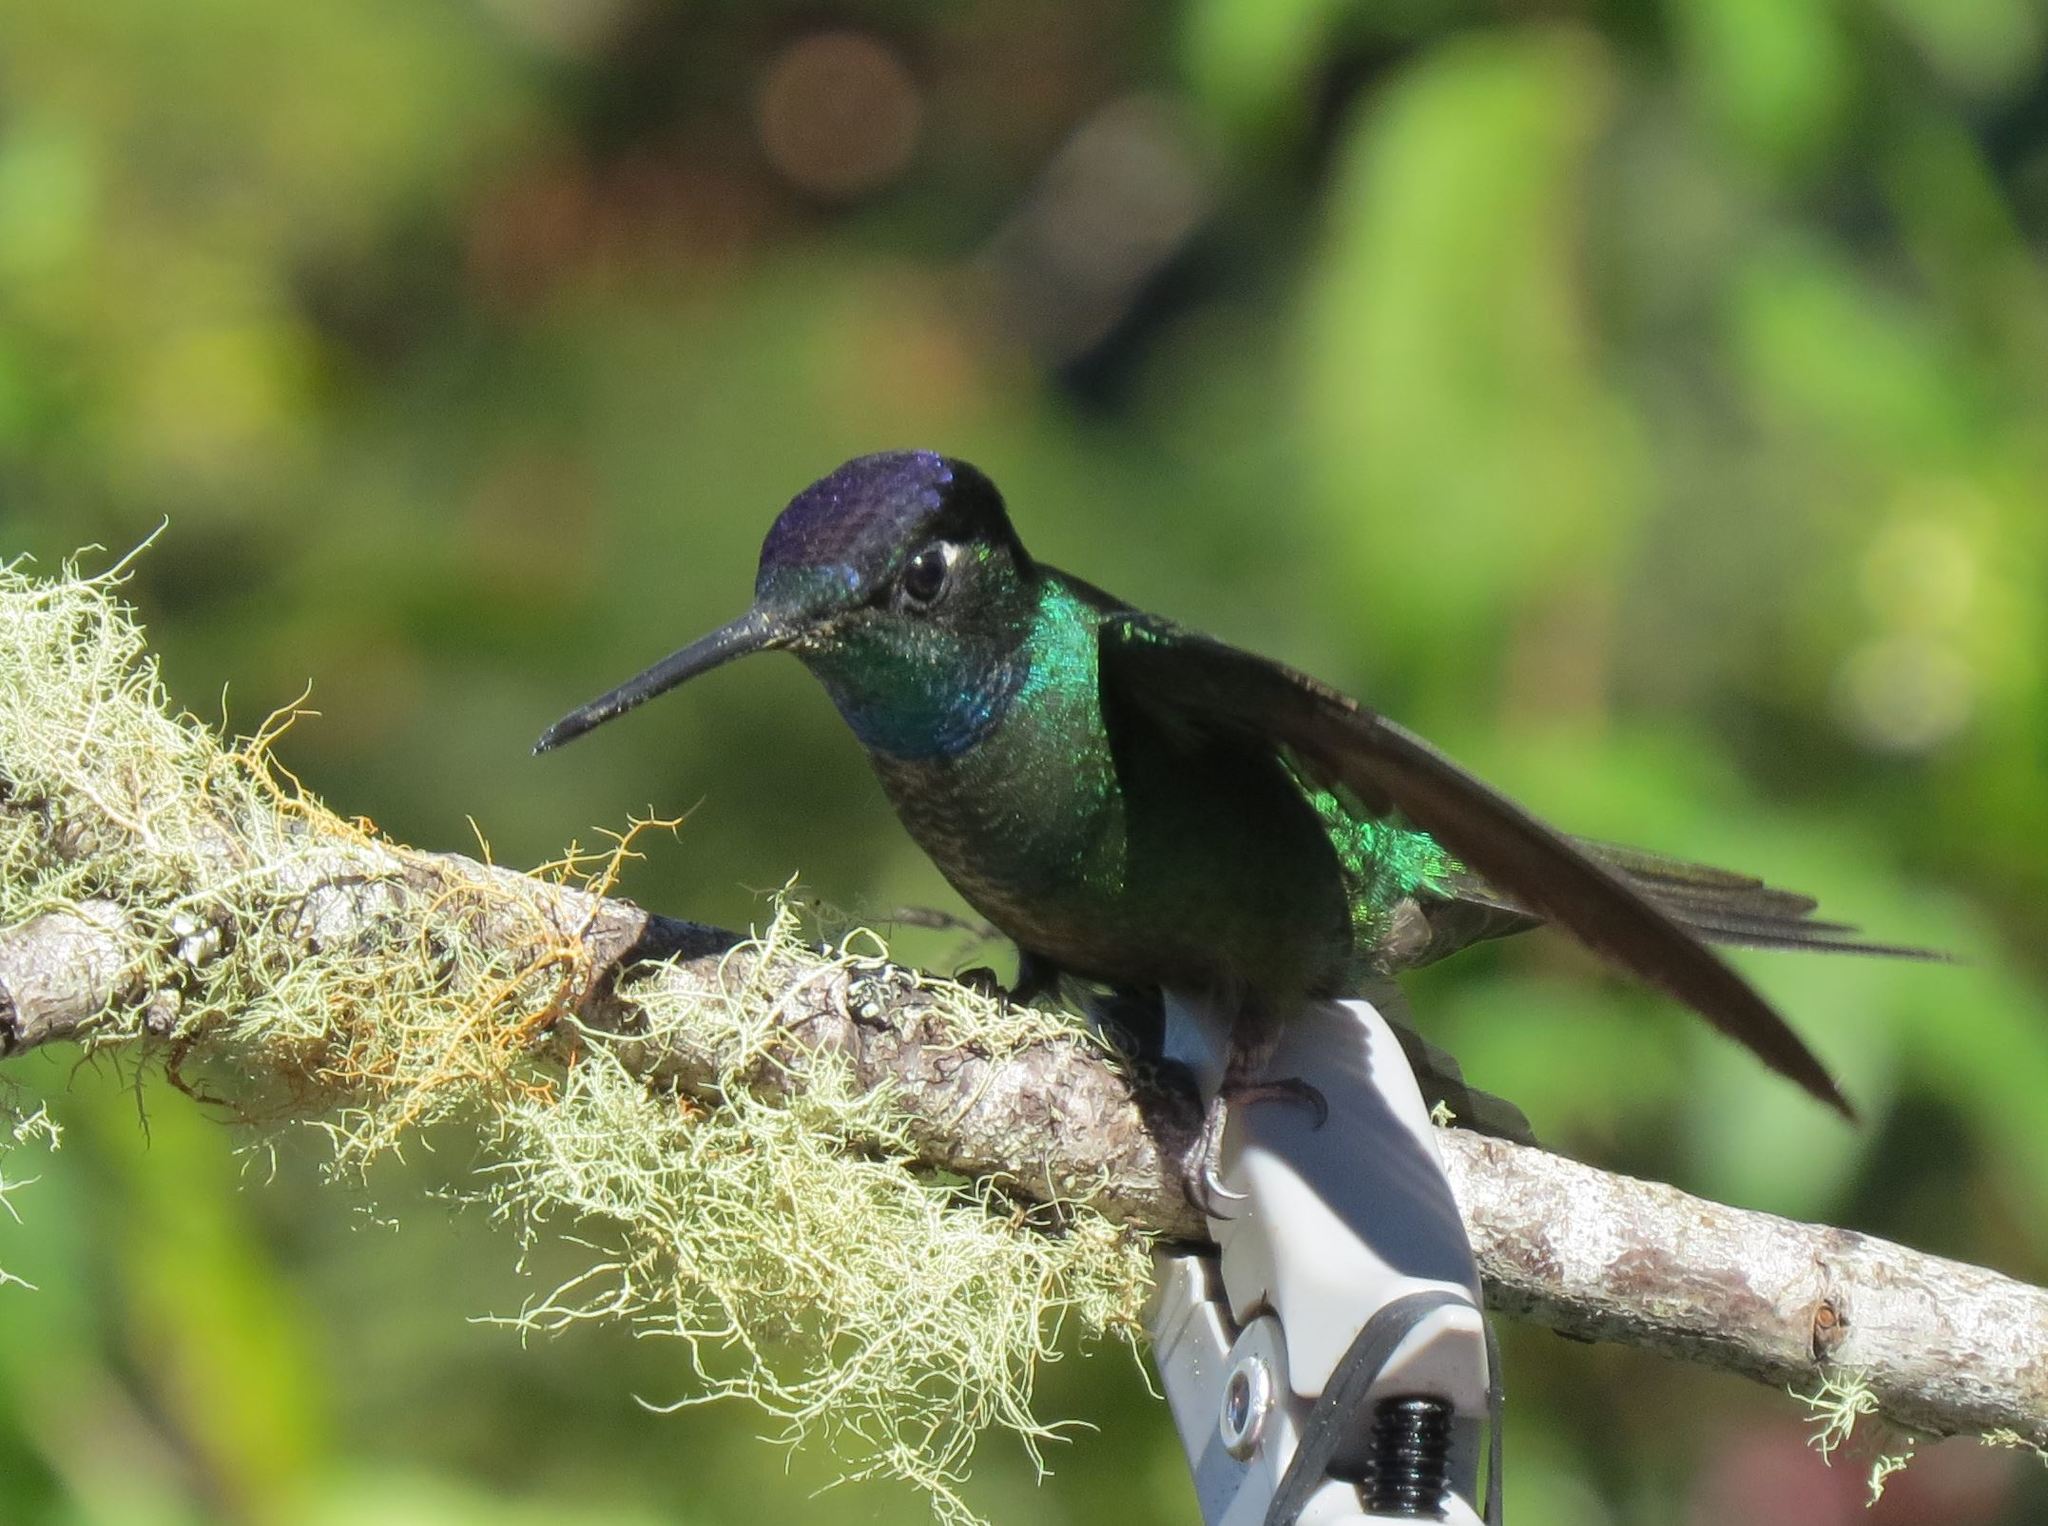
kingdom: Animalia
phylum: Chordata
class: Aves
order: Apodiformes
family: Trochilidae
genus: Eugenes
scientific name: Eugenes spectabilis
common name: Talamanca hummingbird
